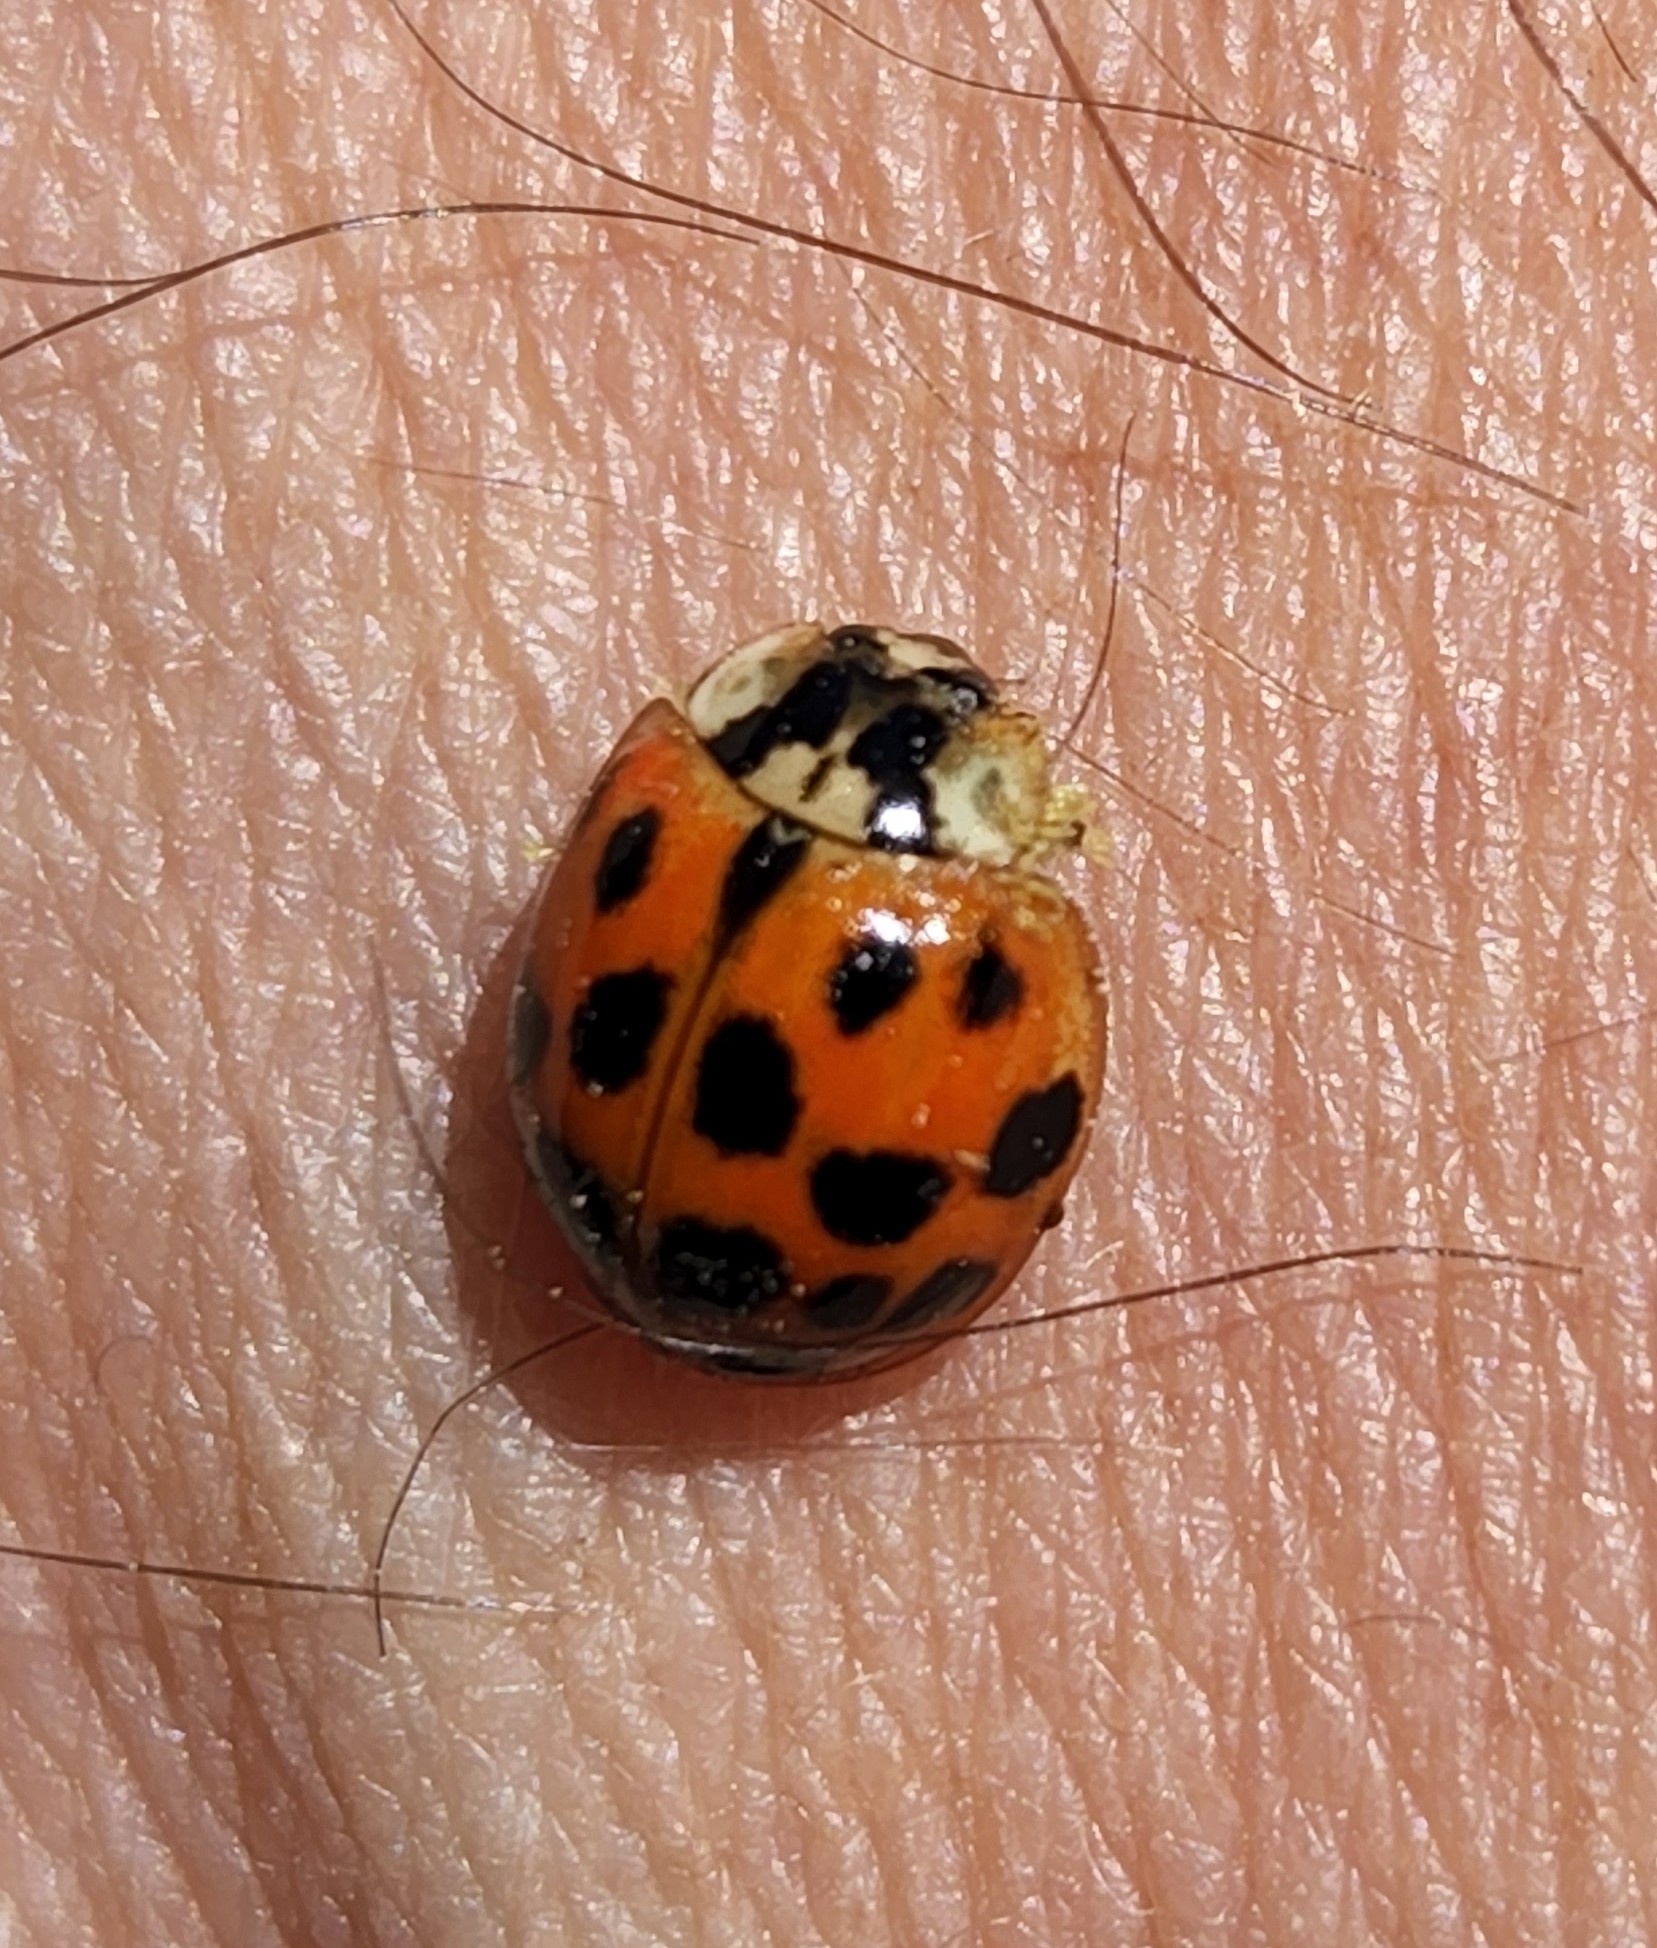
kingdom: Animalia
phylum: Arthropoda
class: Insecta
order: Coleoptera
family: Coccinellidae
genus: Harmonia
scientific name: Harmonia axyridis
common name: Harlequin ladybird
